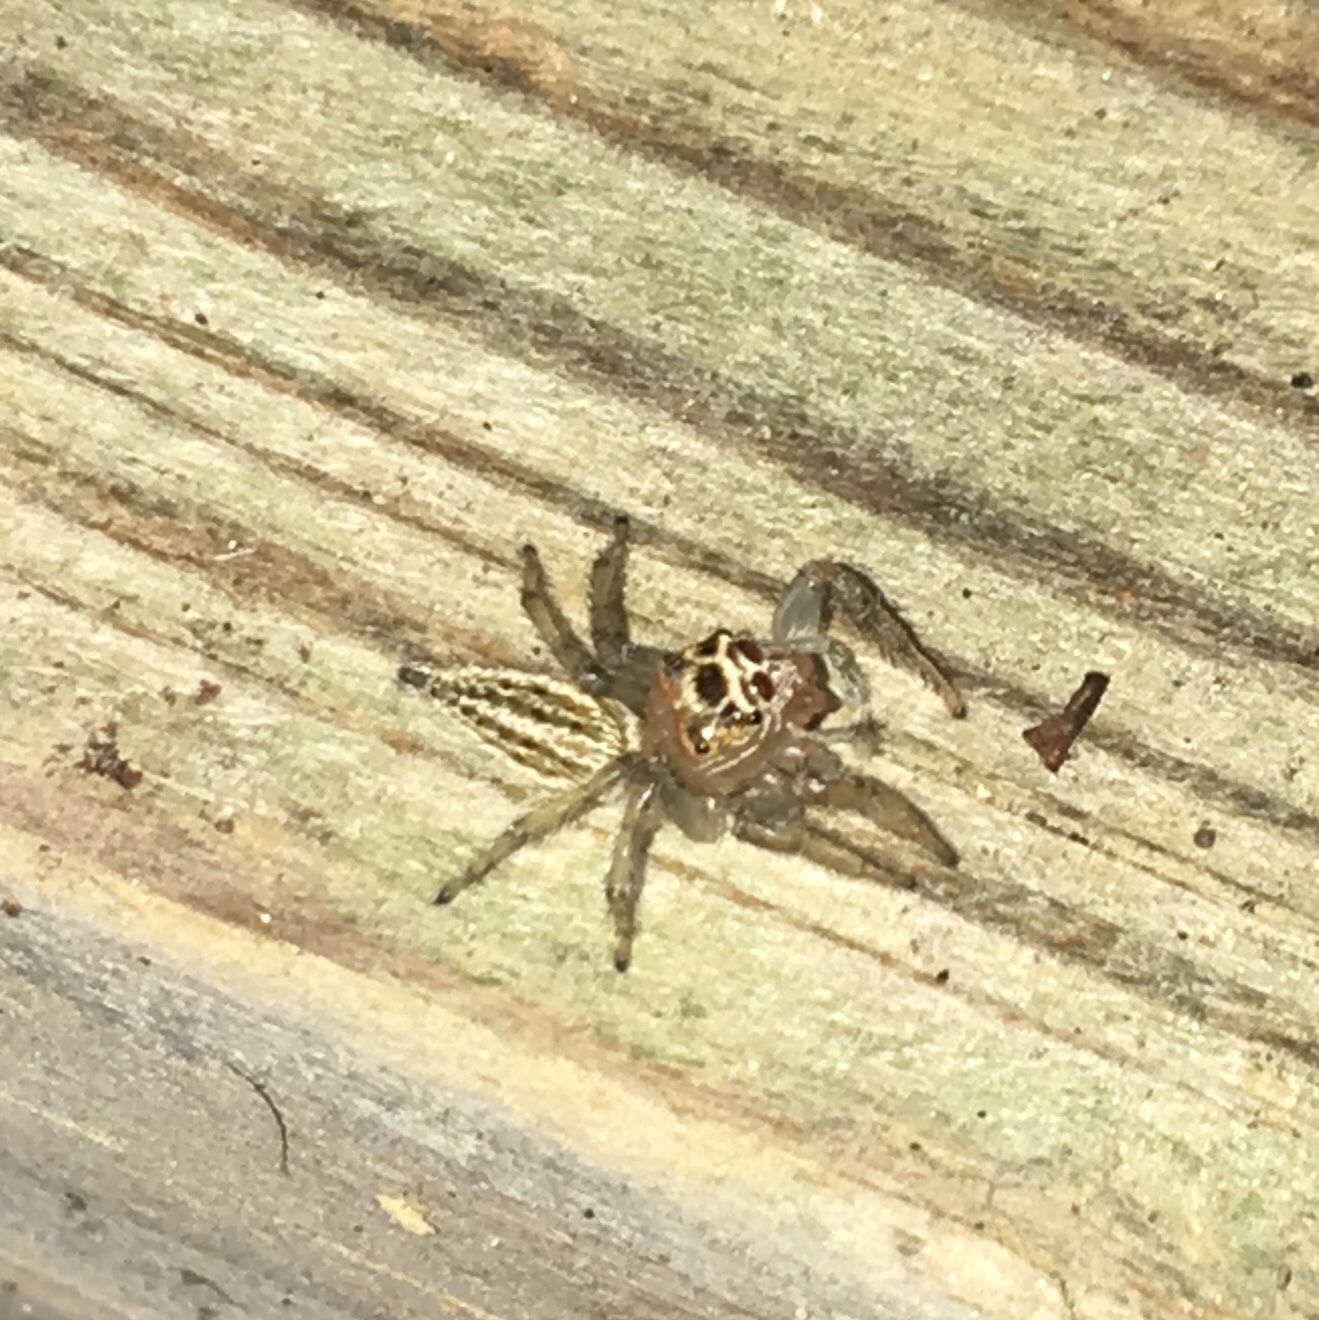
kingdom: Animalia
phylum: Arthropoda
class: Arachnida
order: Araneae
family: Salticidae
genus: Colonus
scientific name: Colonus sylvanus
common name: Jumping spiders
